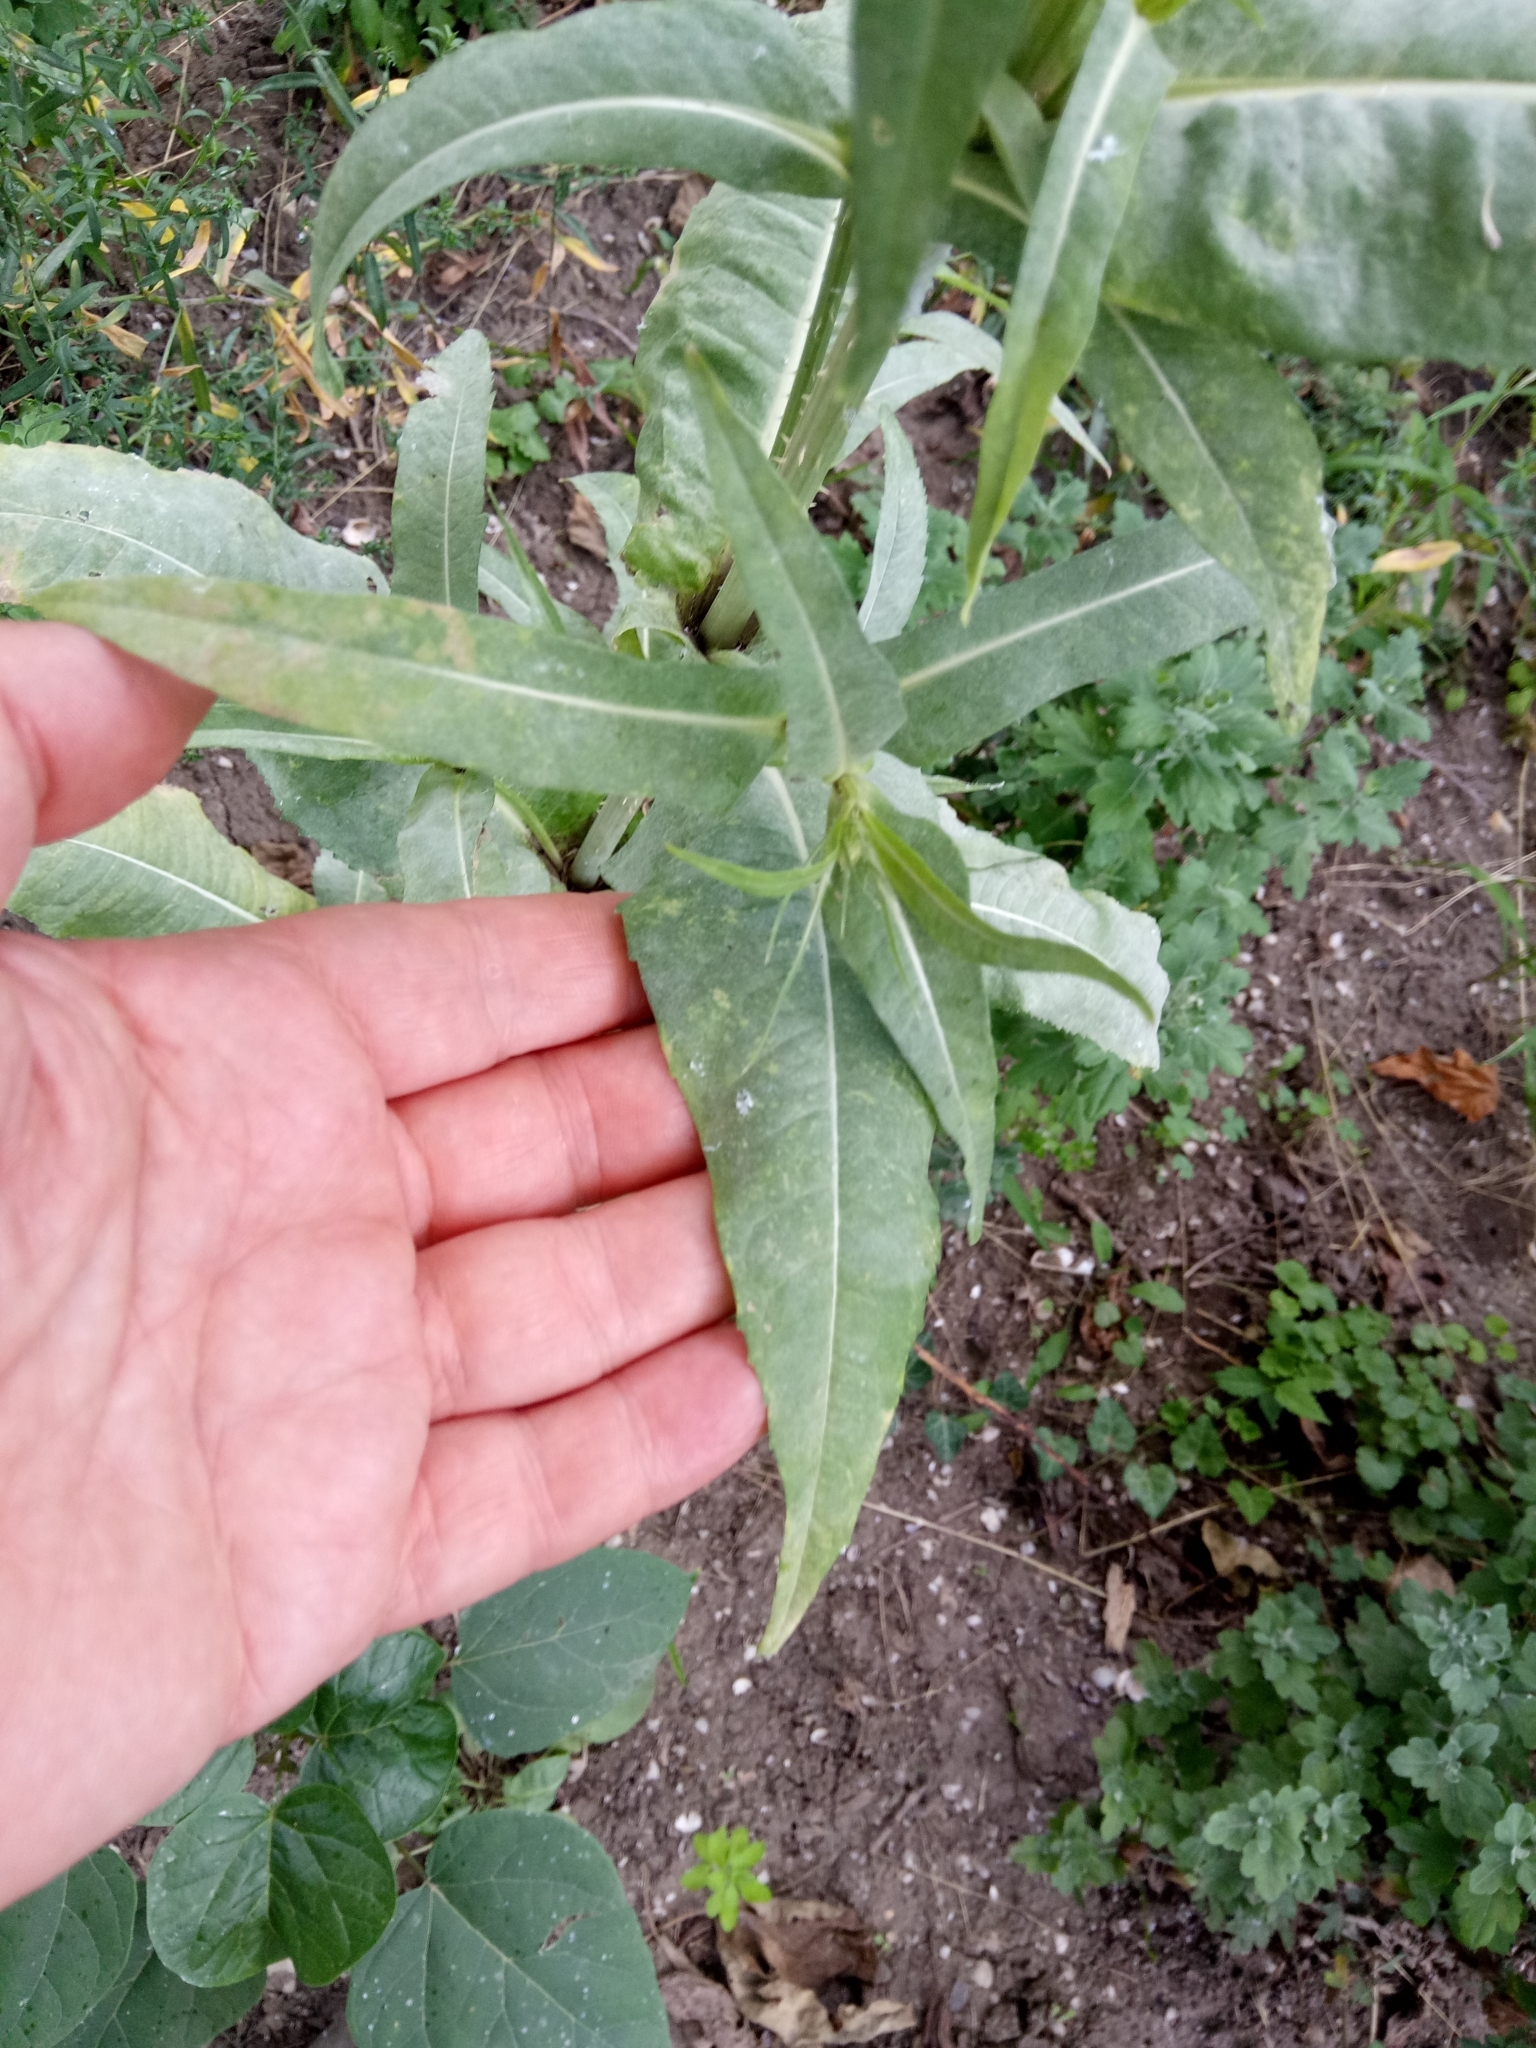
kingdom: Plantae
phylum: Tracheophyta
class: Magnoliopsida
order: Dipsacales
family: Caprifoliaceae
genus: Dipsacus
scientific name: Dipsacus fullonum
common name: Teasel
